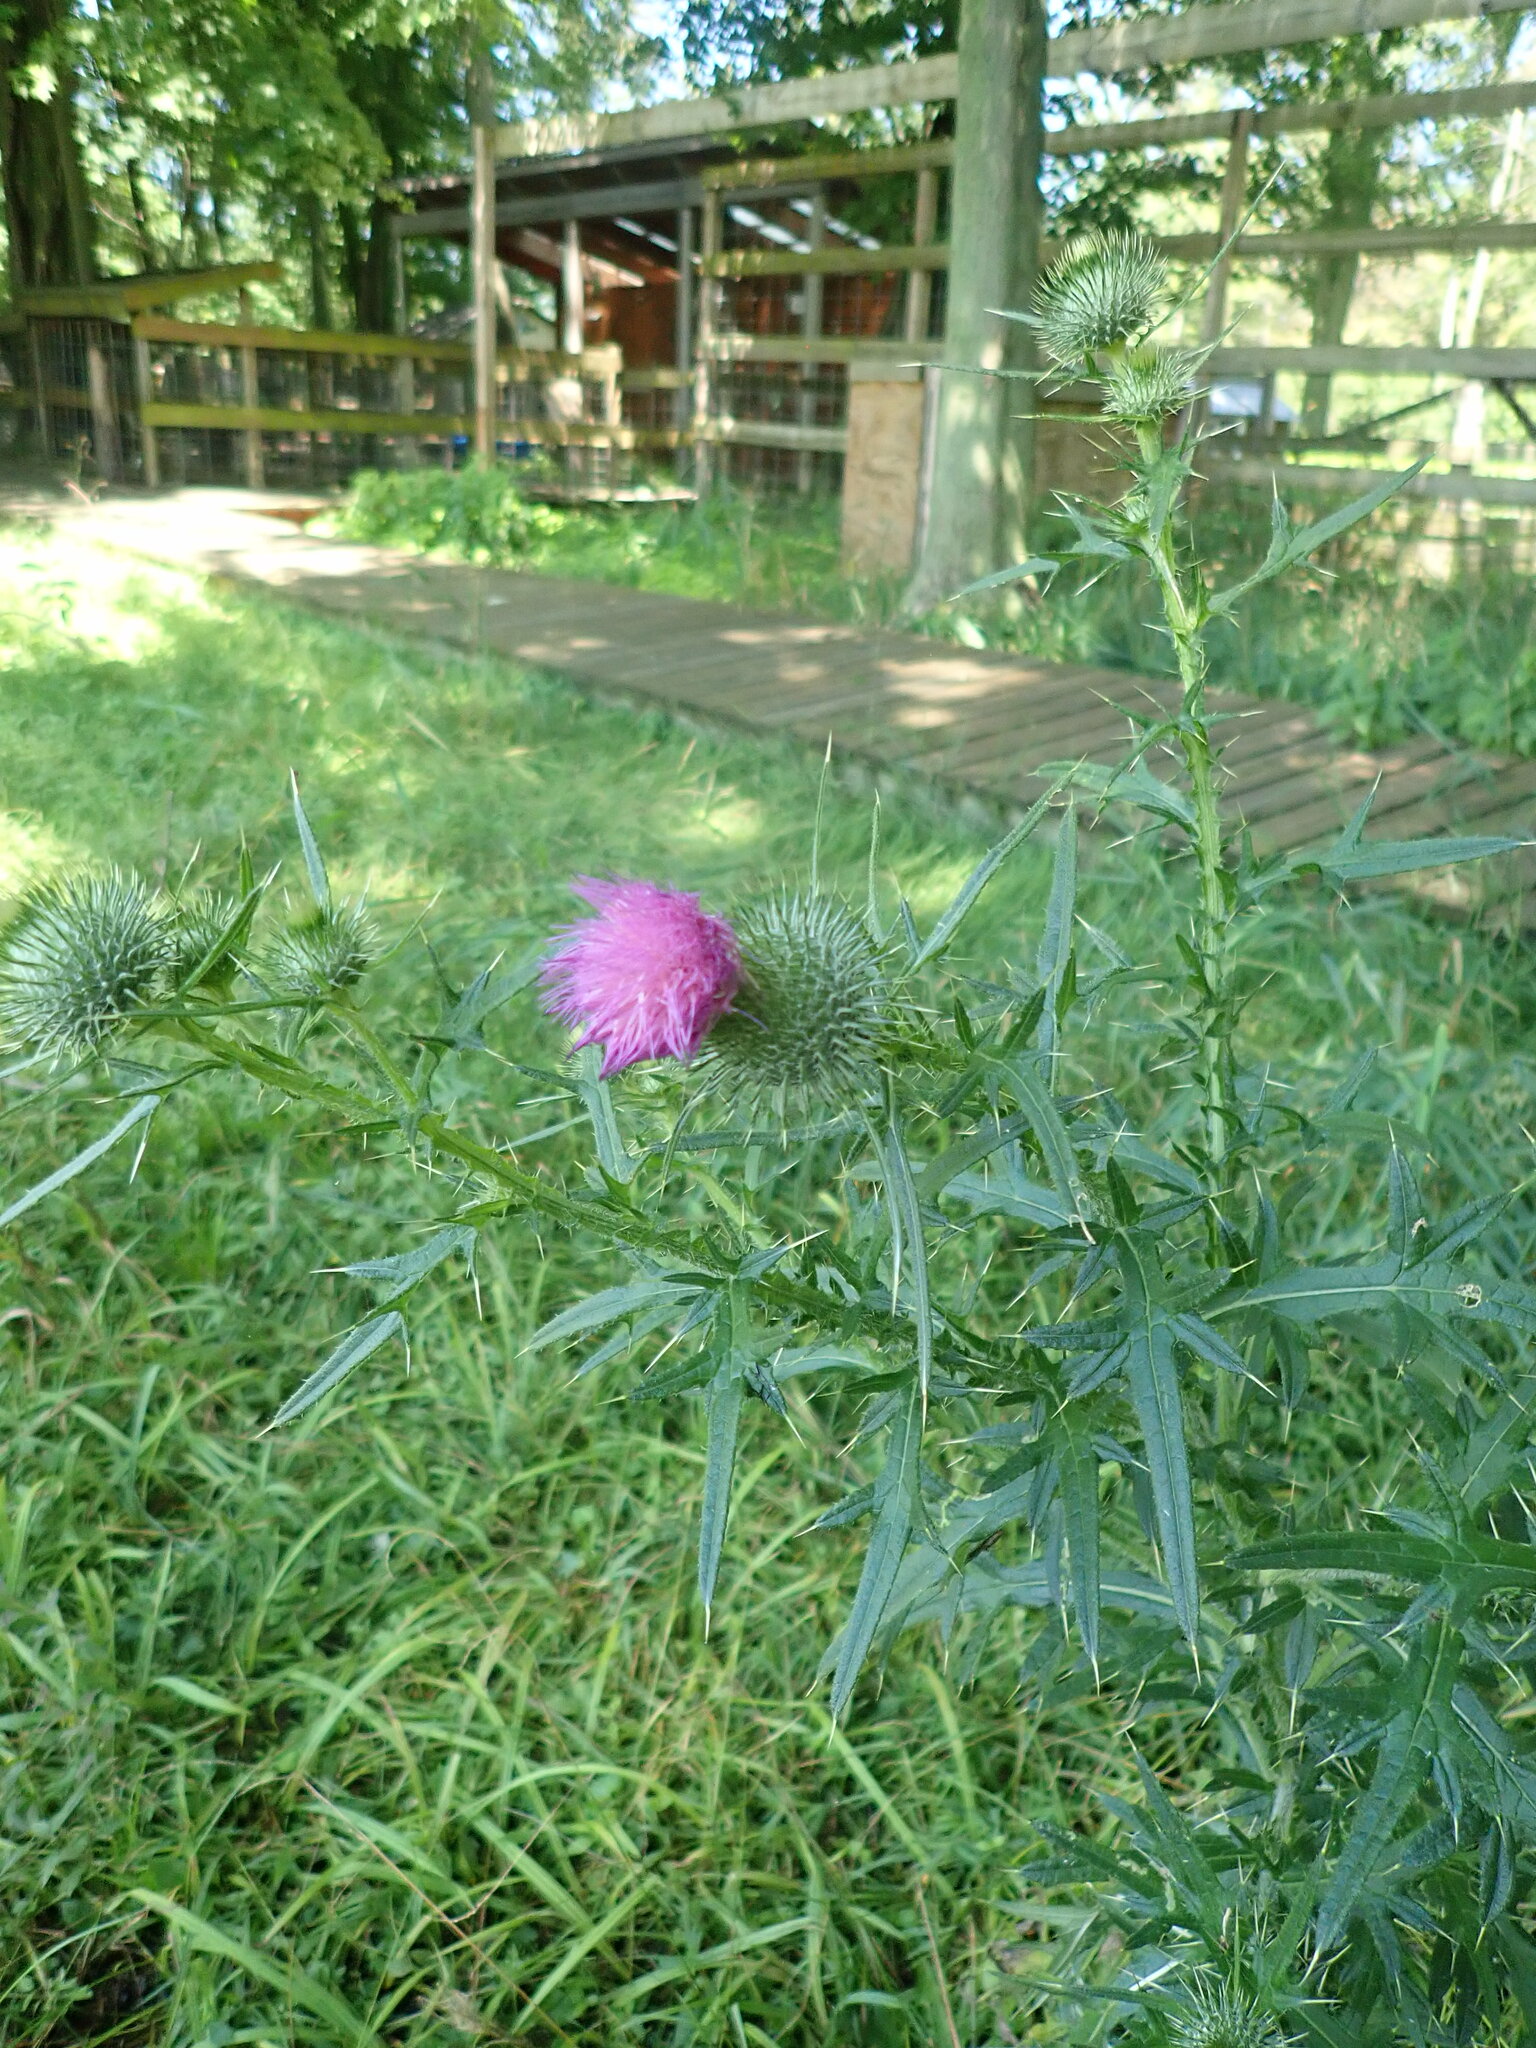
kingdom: Plantae
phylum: Tracheophyta
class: Magnoliopsida
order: Asterales
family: Asteraceae
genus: Cirsium
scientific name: Cirsium vulgare
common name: Bull thistle
